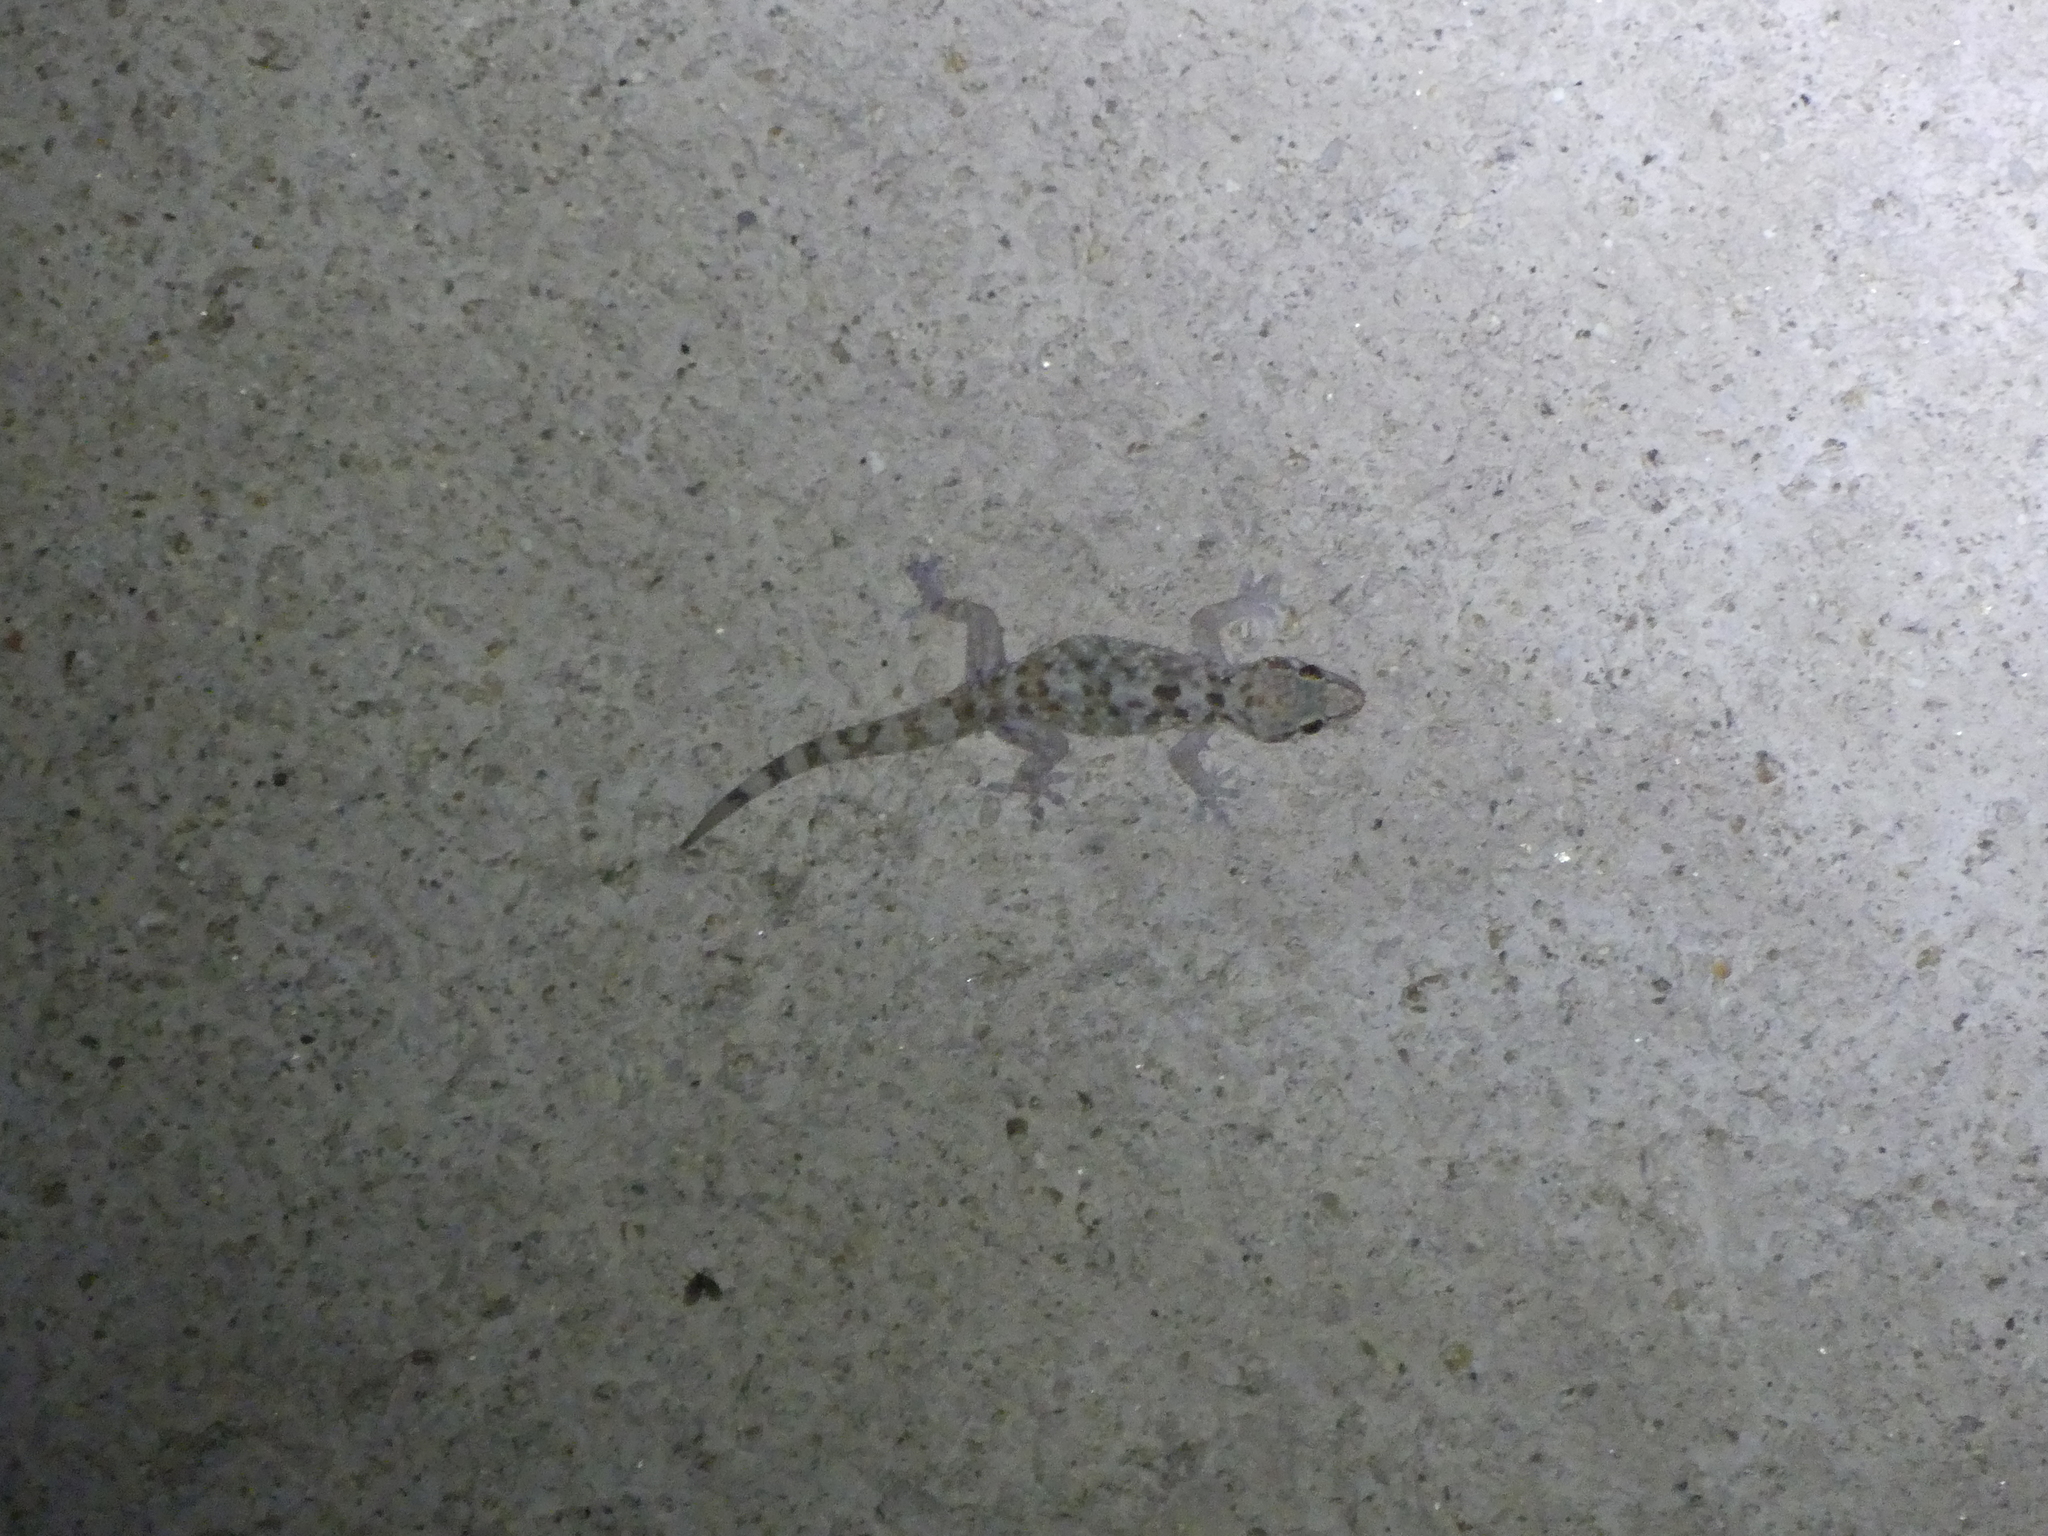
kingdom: Animalia
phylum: Chordata
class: Squamata
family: Gekkonidae
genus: Hemidactylus
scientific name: Hemidactylus turcicus
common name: Turkish gecko
